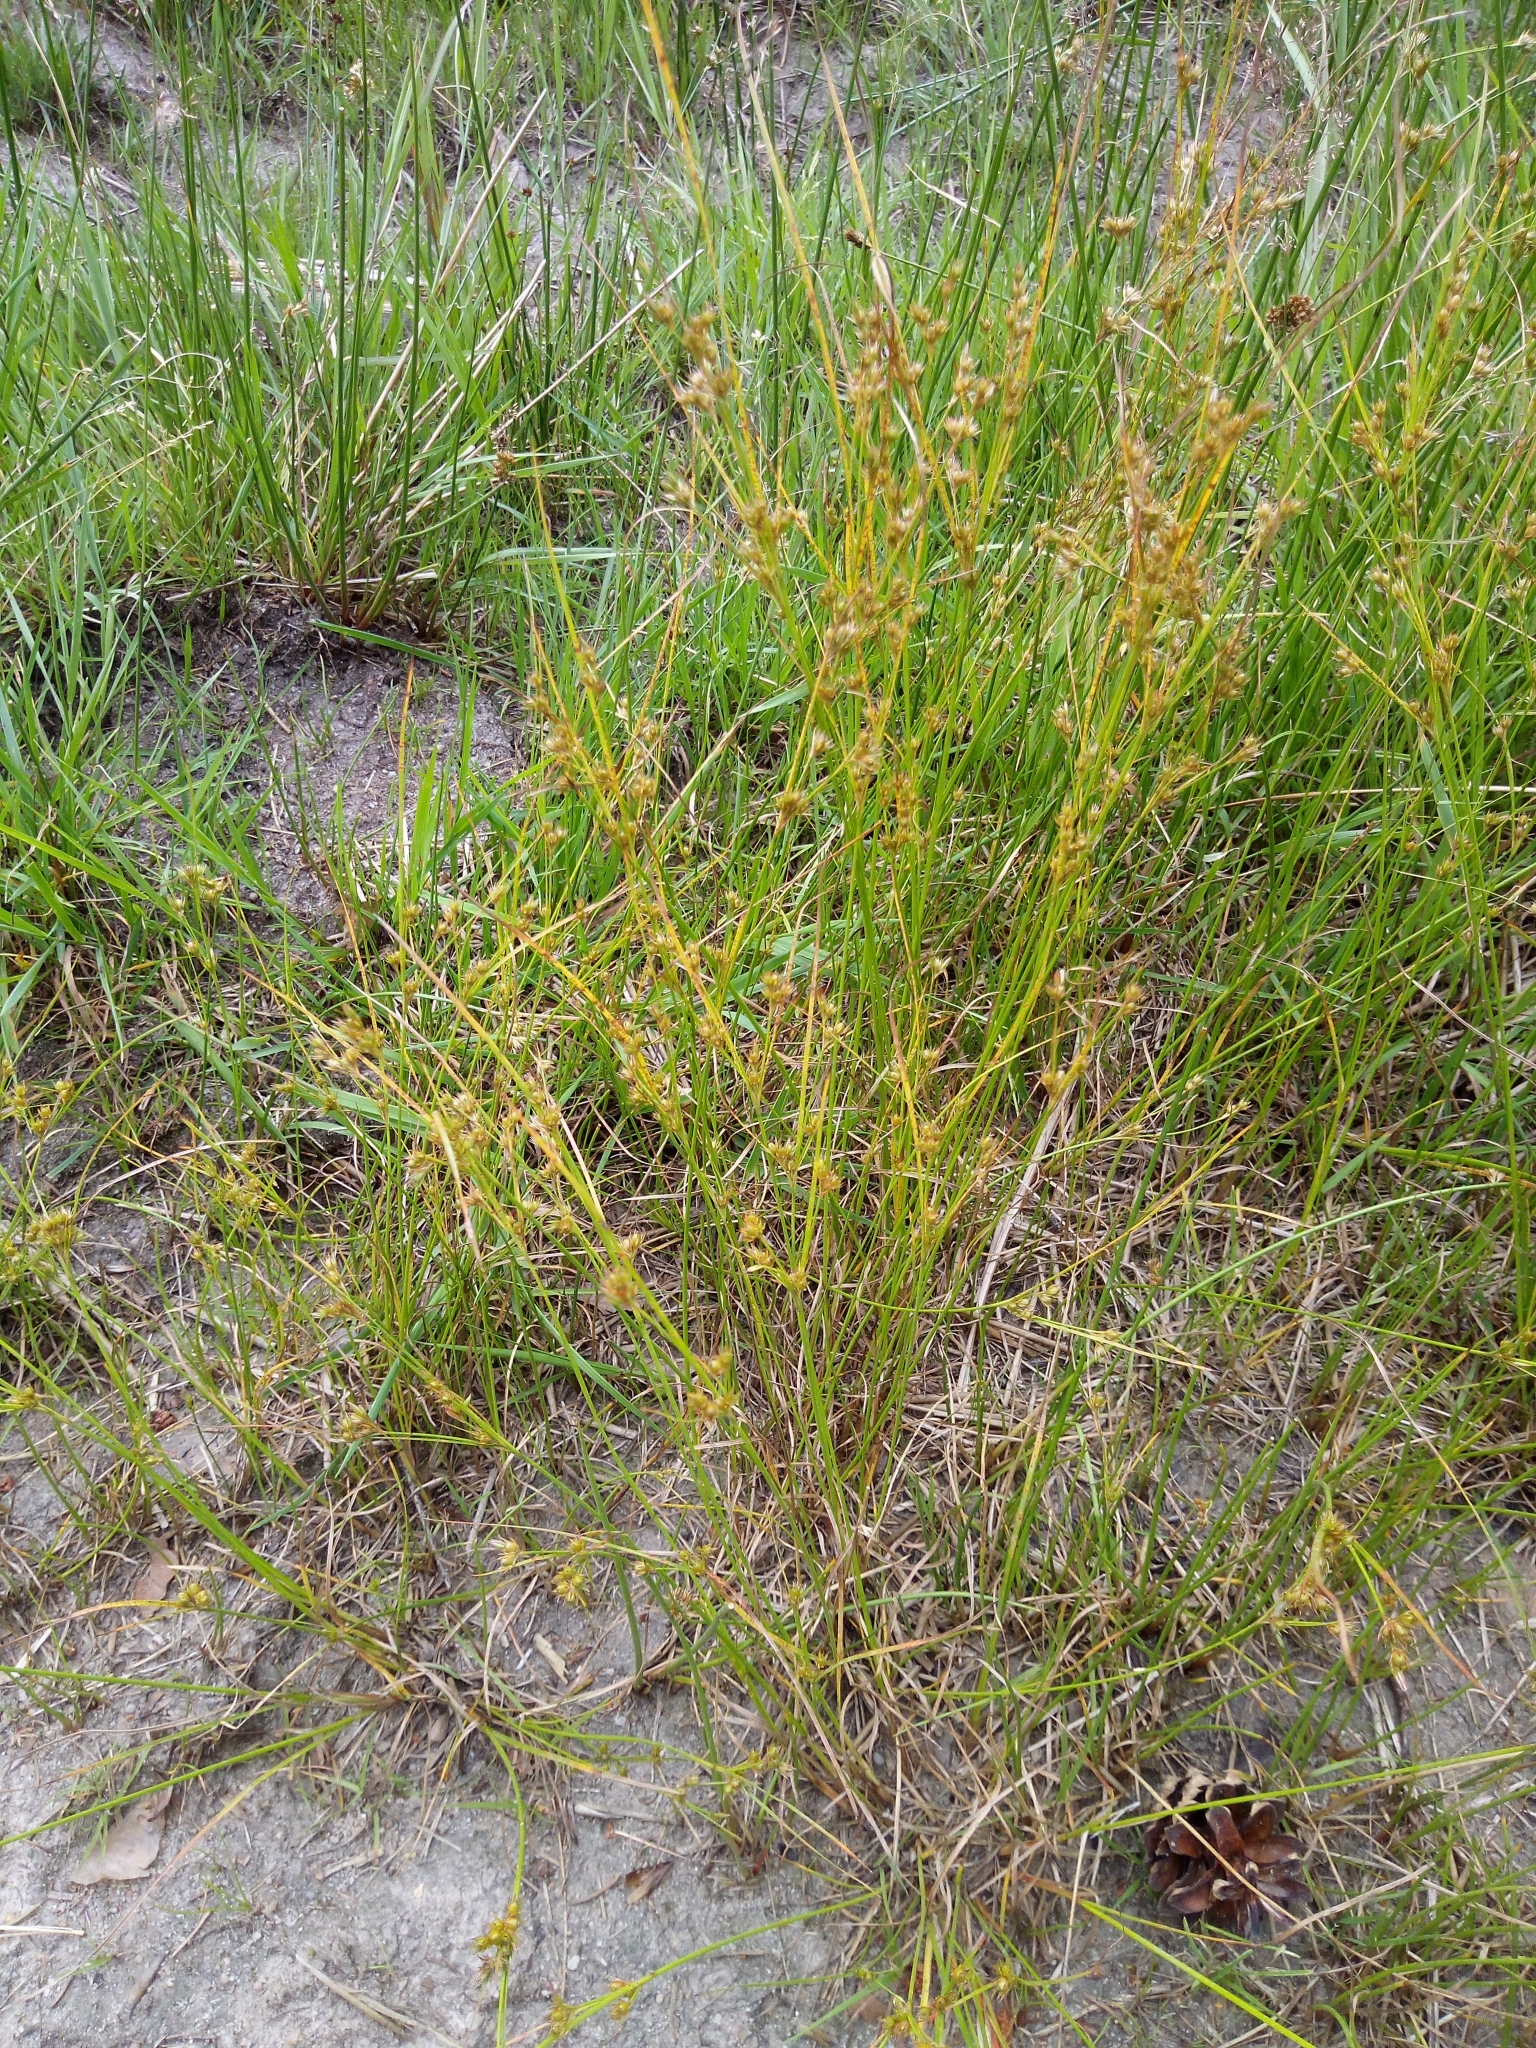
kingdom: Plantae
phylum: Tracheophyta
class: Liliopsida
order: Poales
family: Juncaceae
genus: Juncus
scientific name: Juncus tenuis
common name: Slender rush
